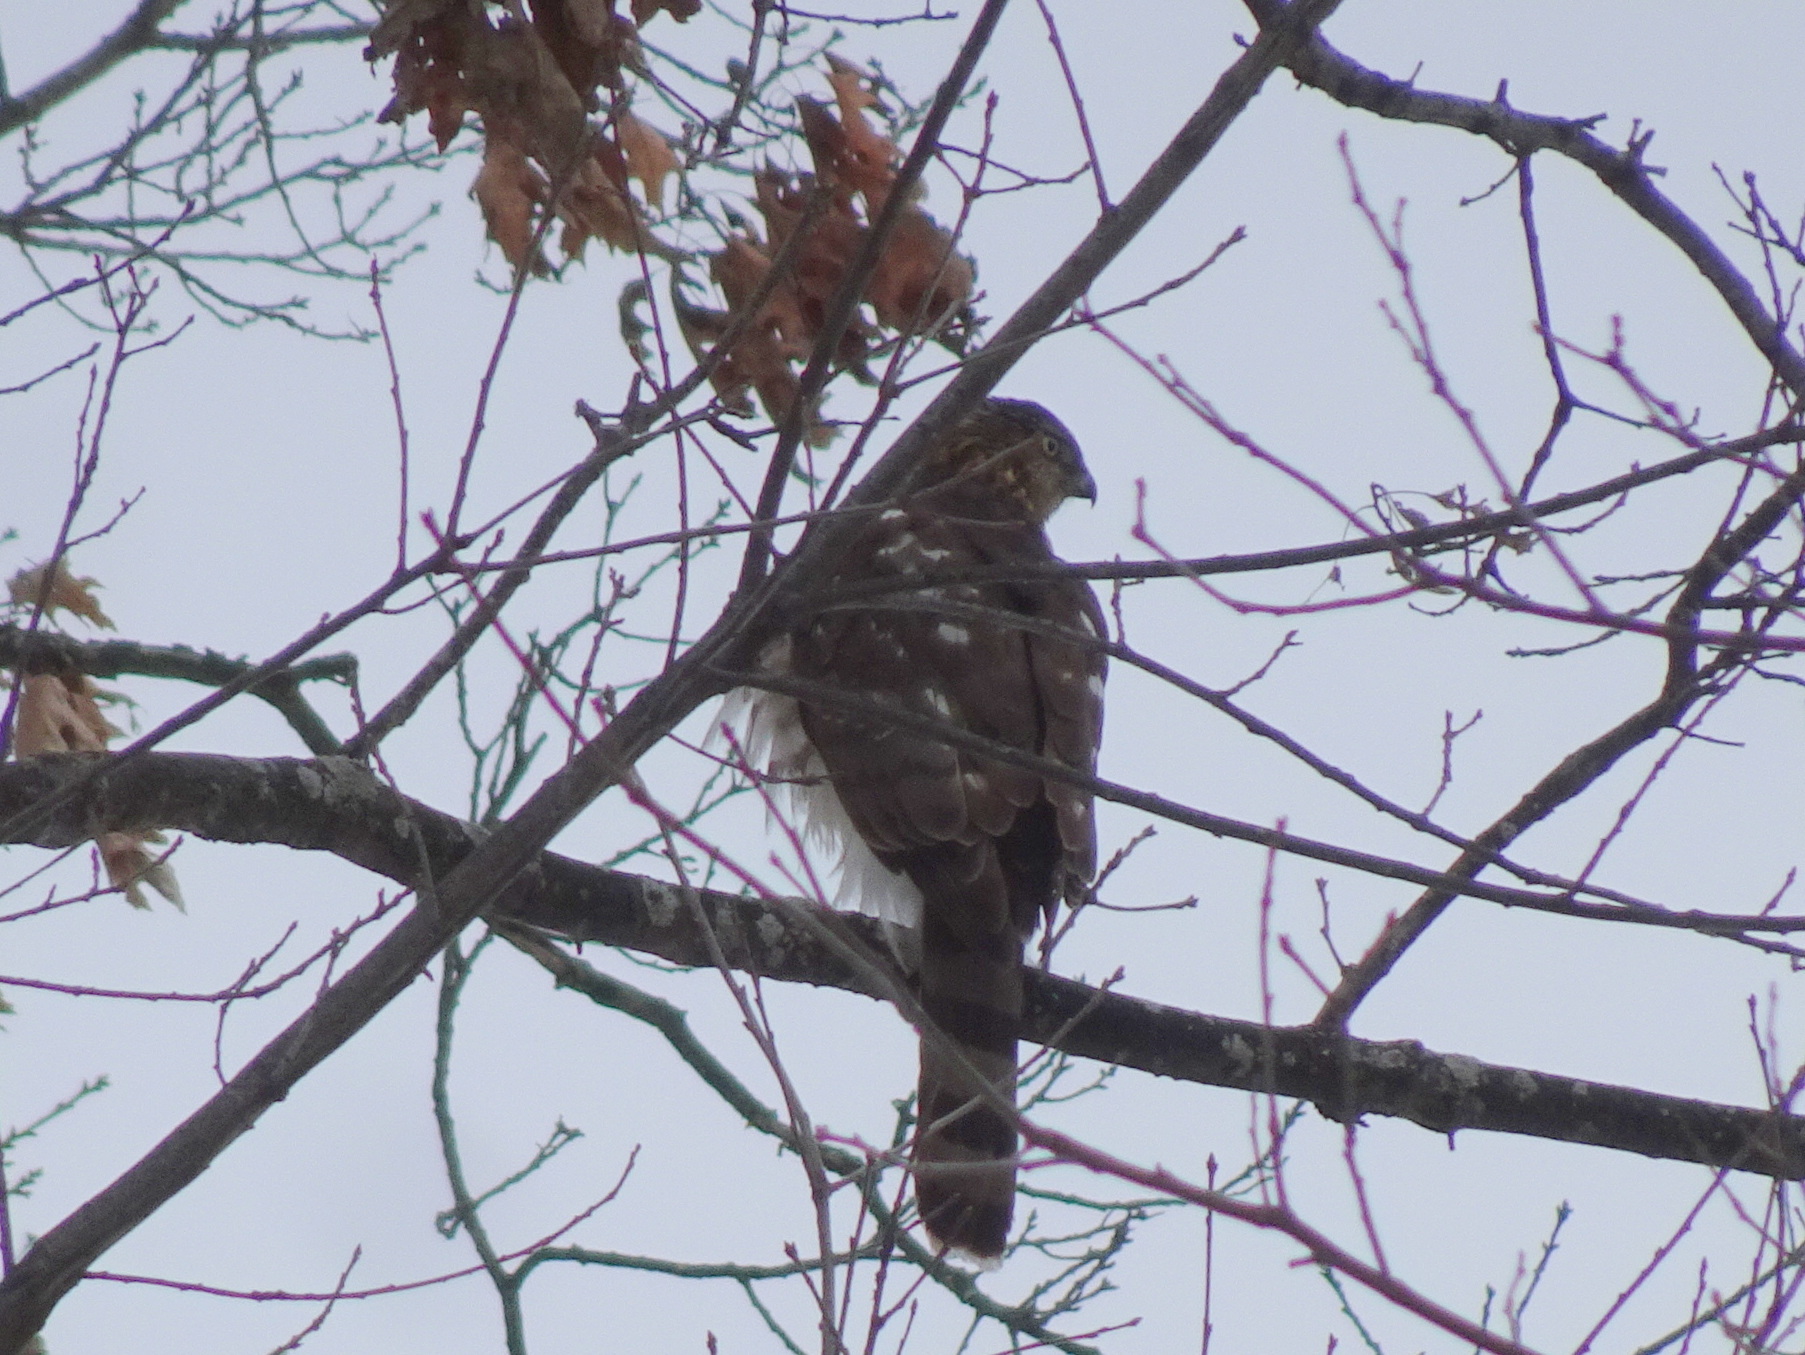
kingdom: Animalia
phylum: Chordata
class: Aves
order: Accipitriformes
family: Accipitridae
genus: Accipiter
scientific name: Accipiter cooperii
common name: Cooper's hawk
